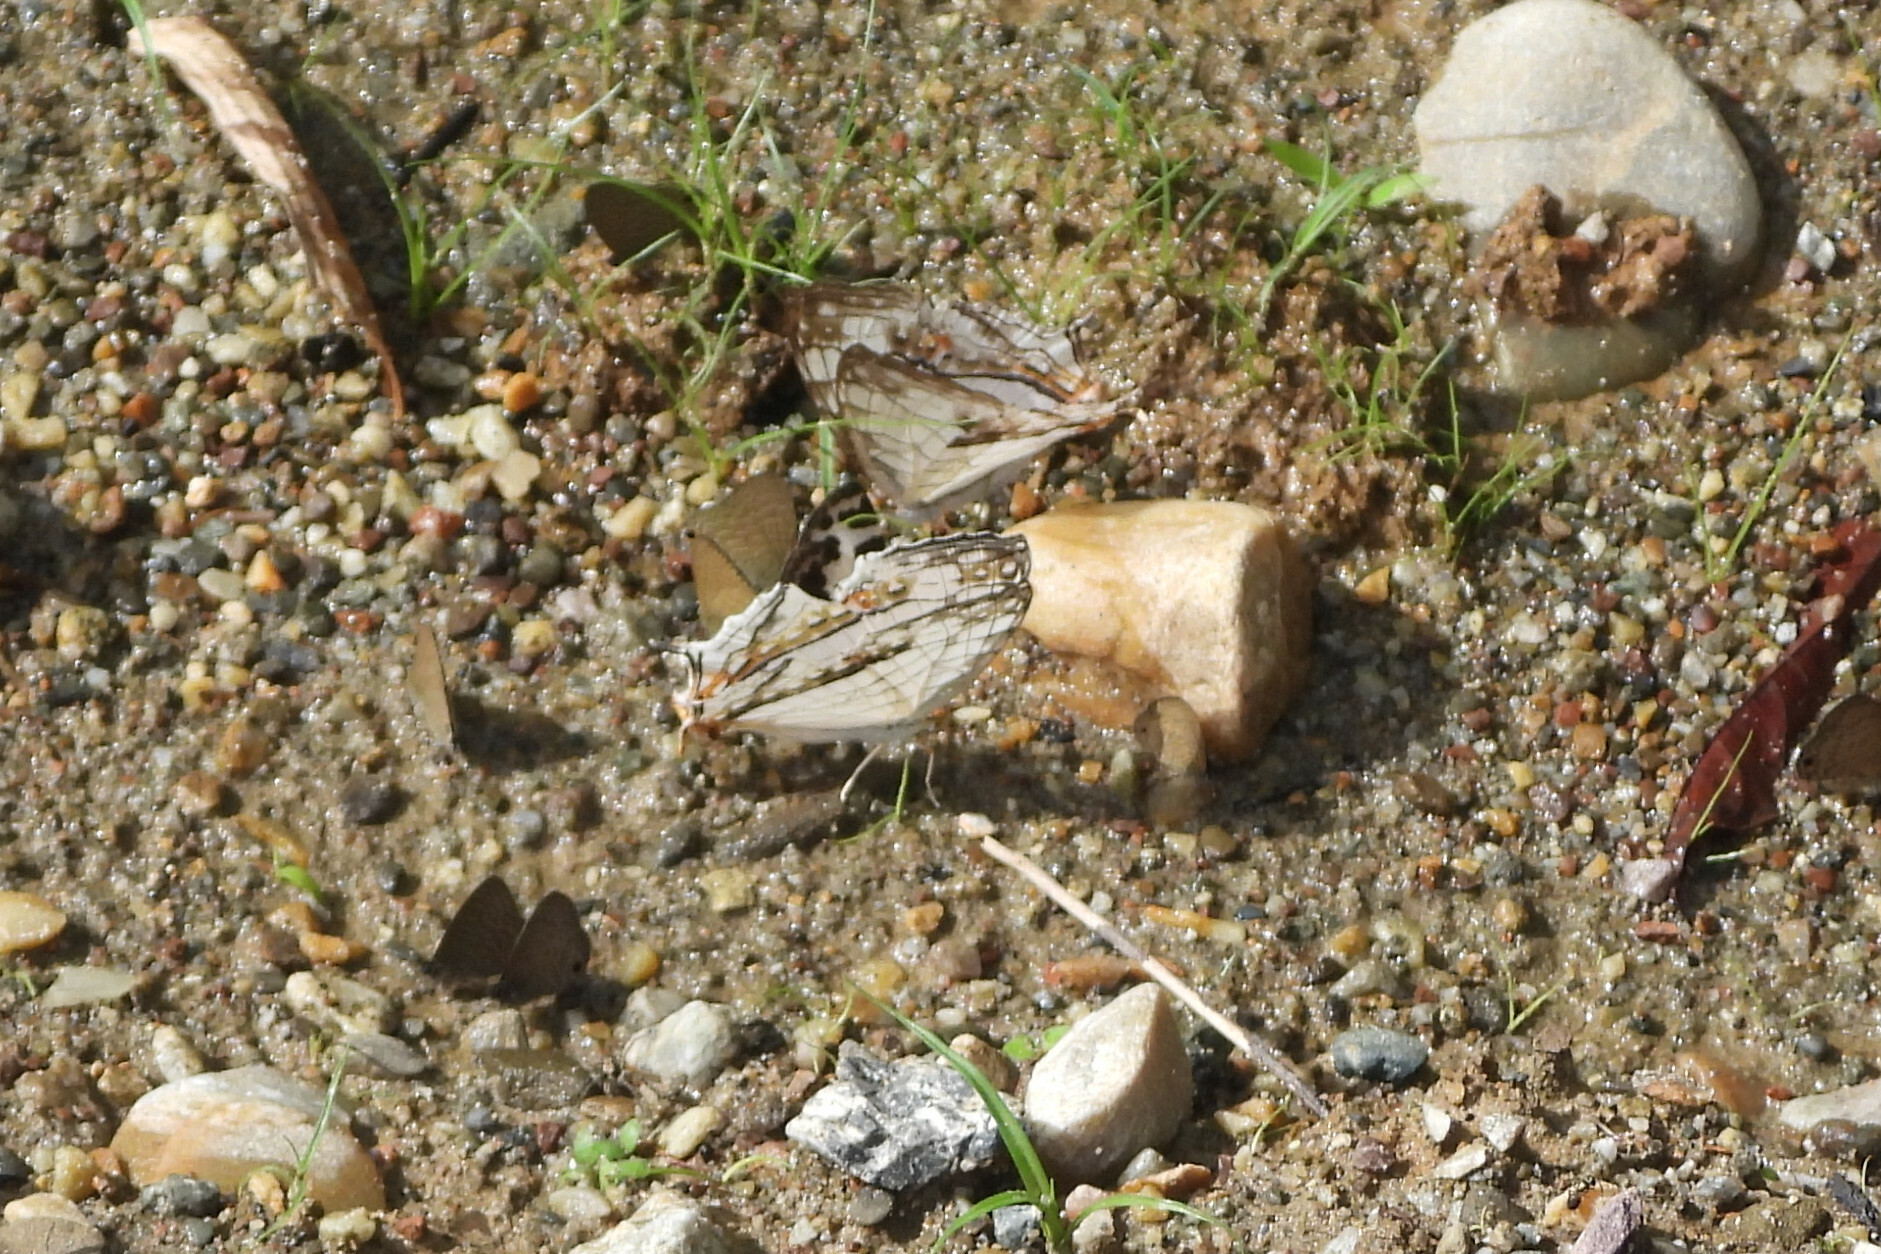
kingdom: Animalia
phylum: Arthropoda
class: Insecta
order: Lepidoptera
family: Nymphalidae
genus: Cyrestis
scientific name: Cyrestis thyodamas
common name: Common mapwing
